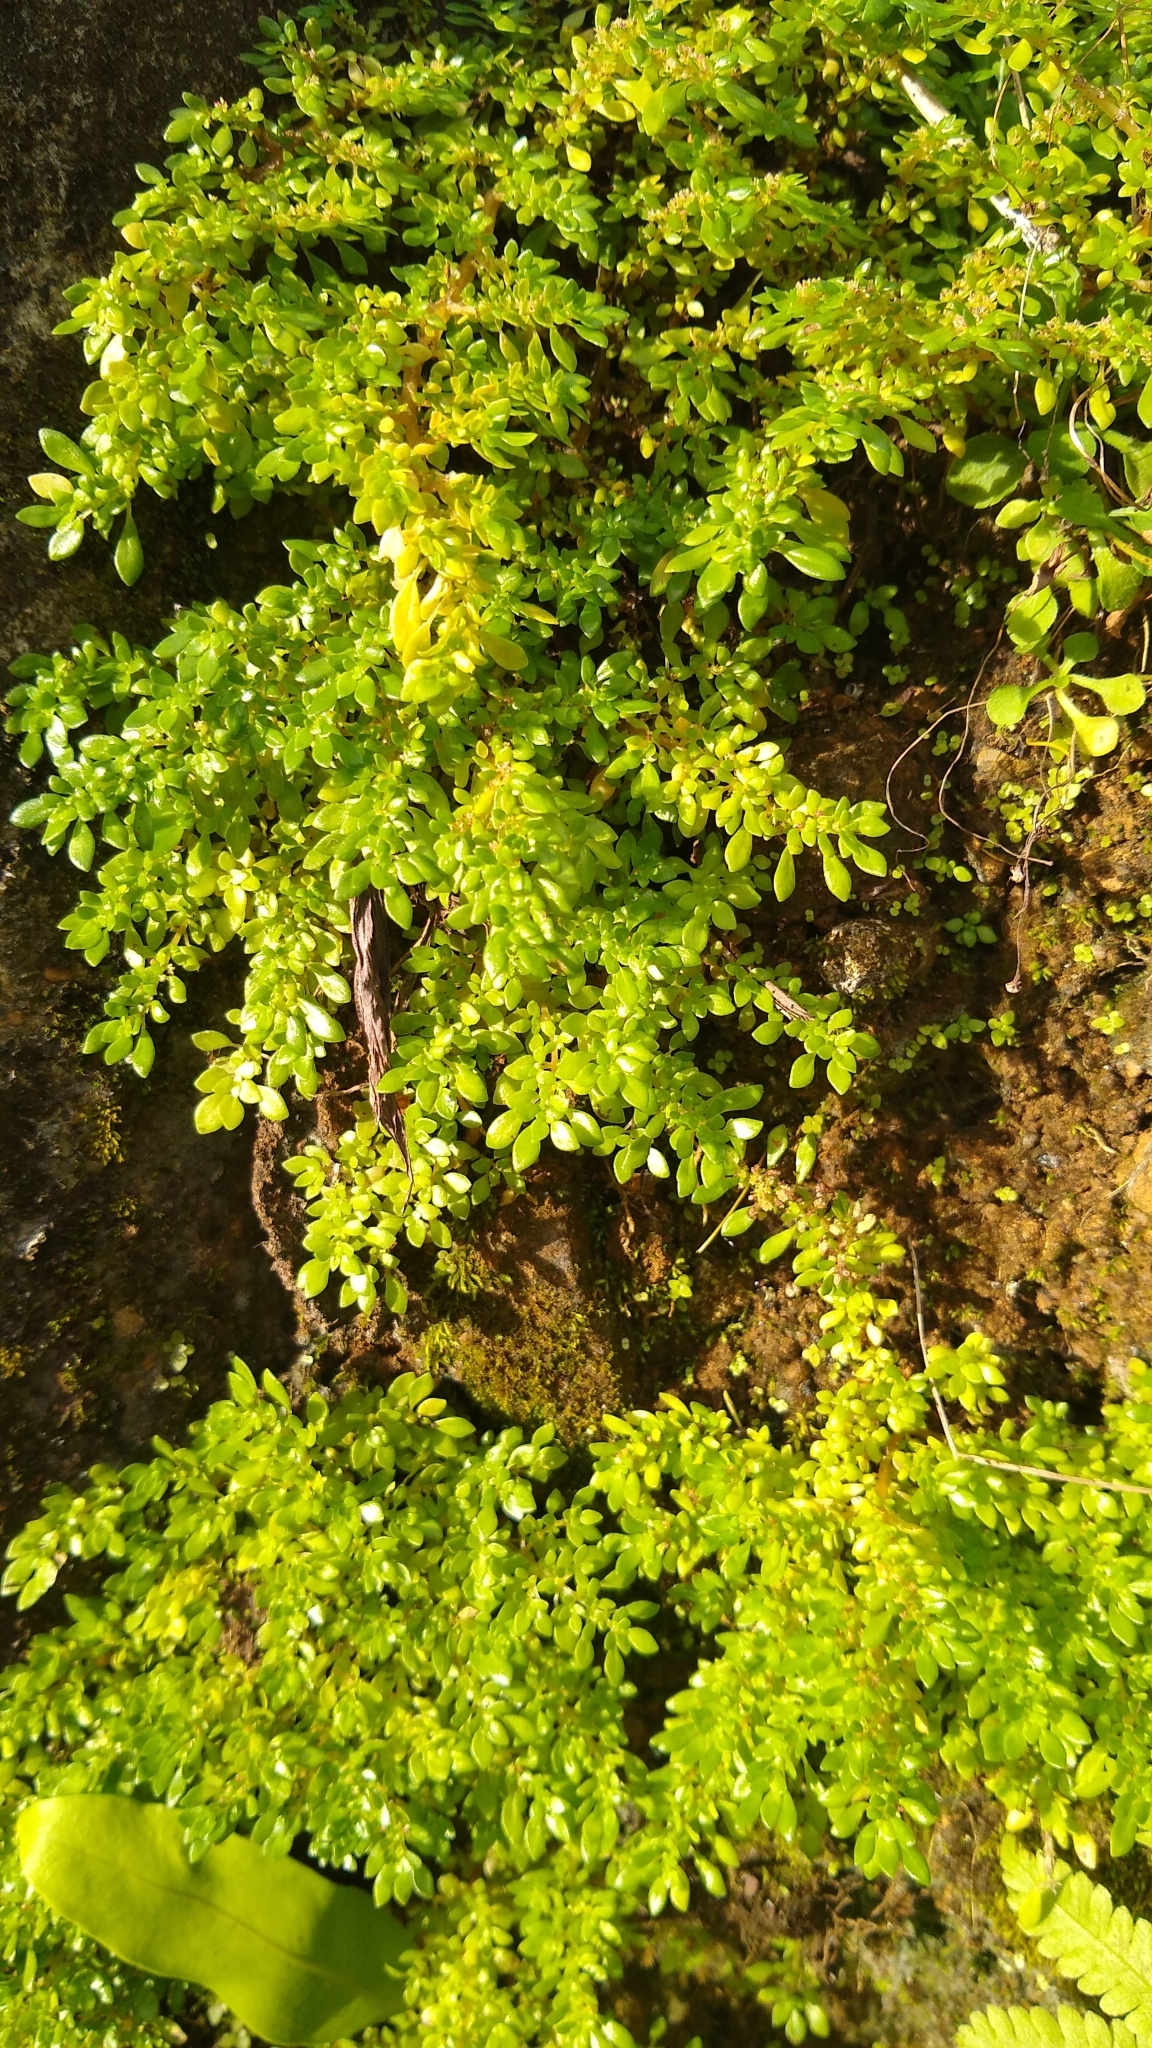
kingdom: Plantae
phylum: Tracheophyta
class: Magnoliopsida
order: Rosales
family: Urticaceae
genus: Pilea
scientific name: Pilea microphylla
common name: Artillery-plant
